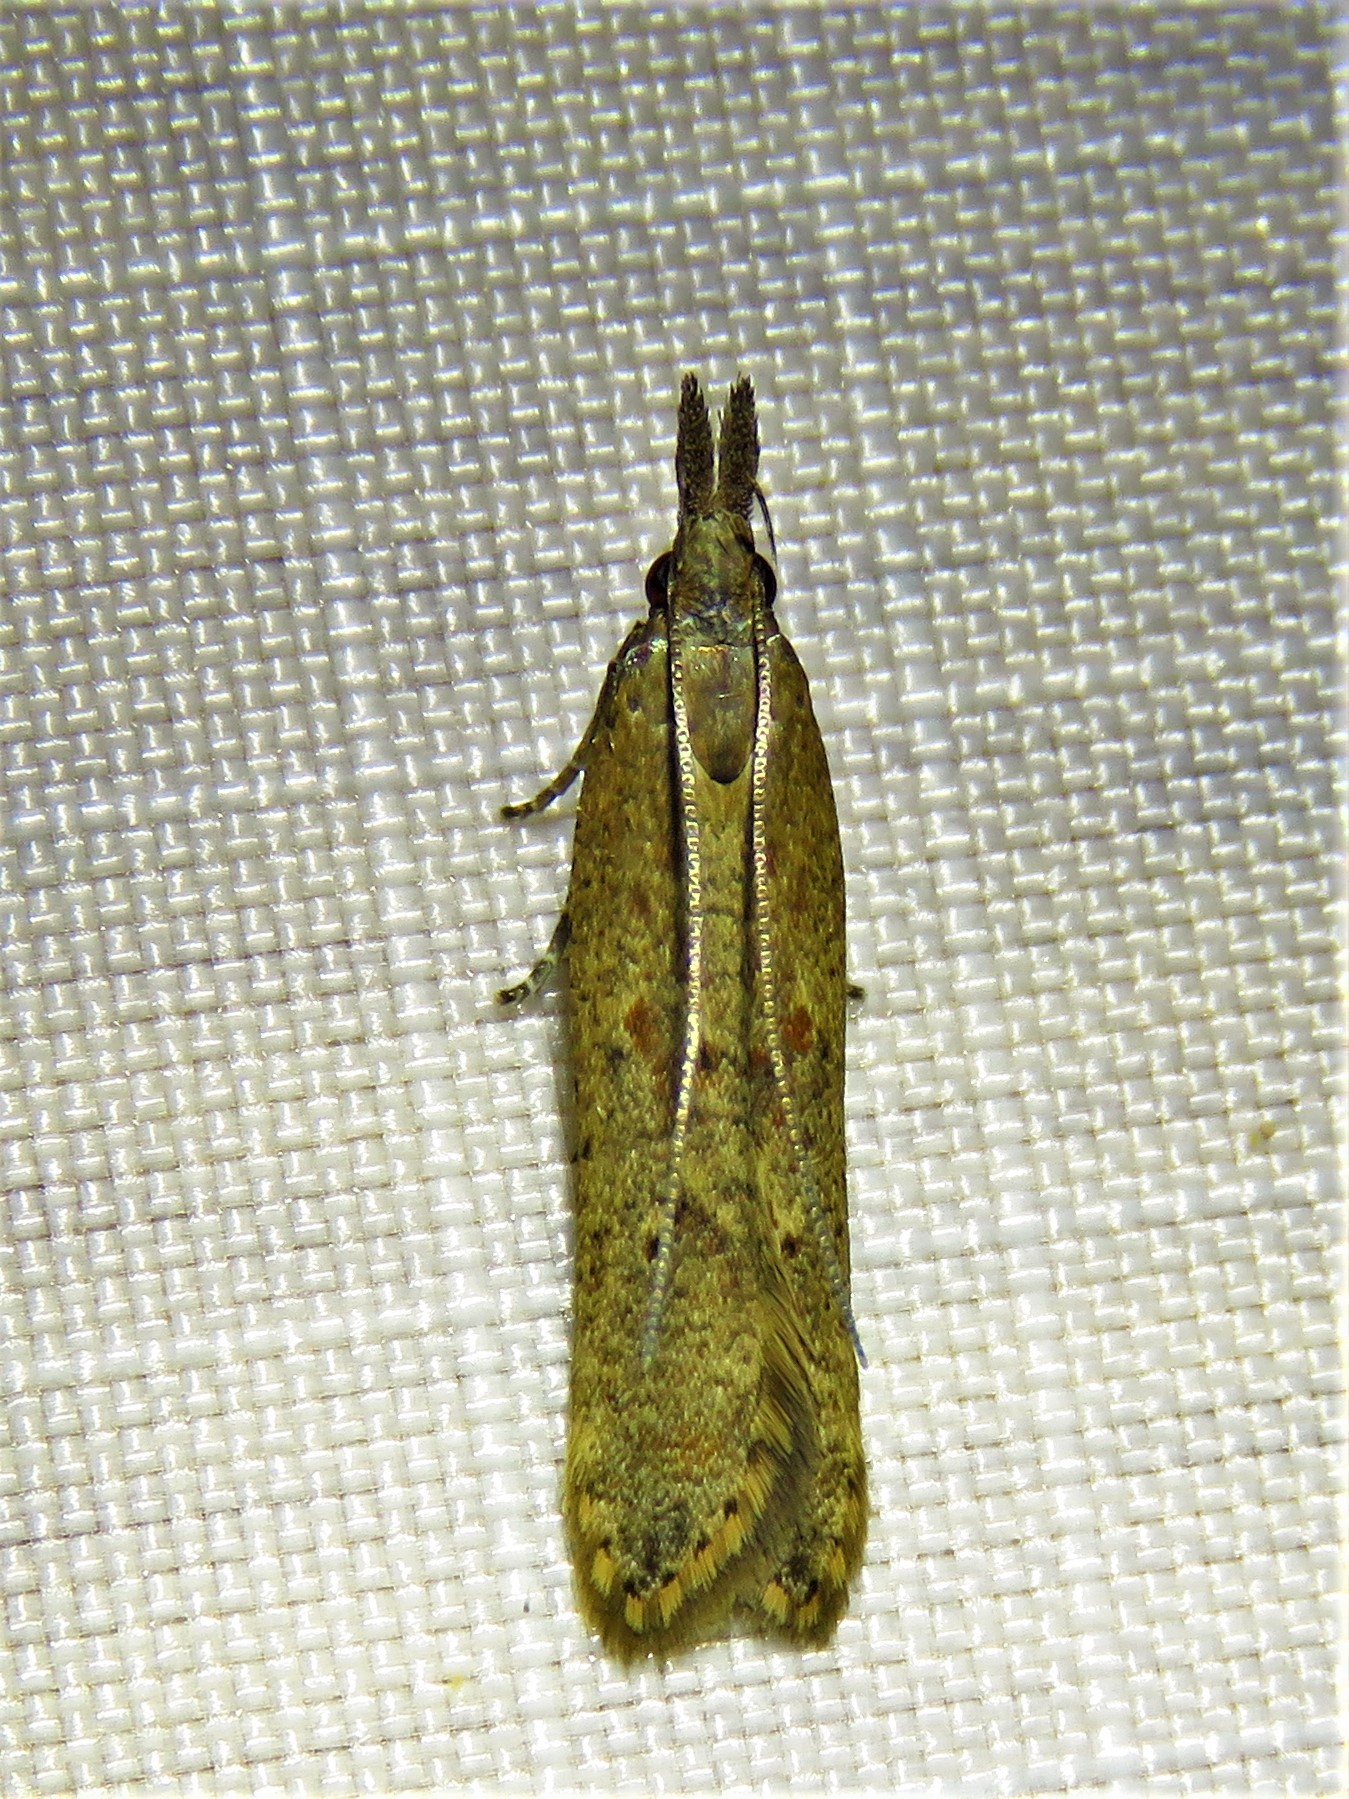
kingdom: Animalia
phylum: Arthropoda
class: Insecta
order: Lepidoptera
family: Gelechiidae
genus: Dichomeris
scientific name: Dichomeris ligulella
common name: Moth
